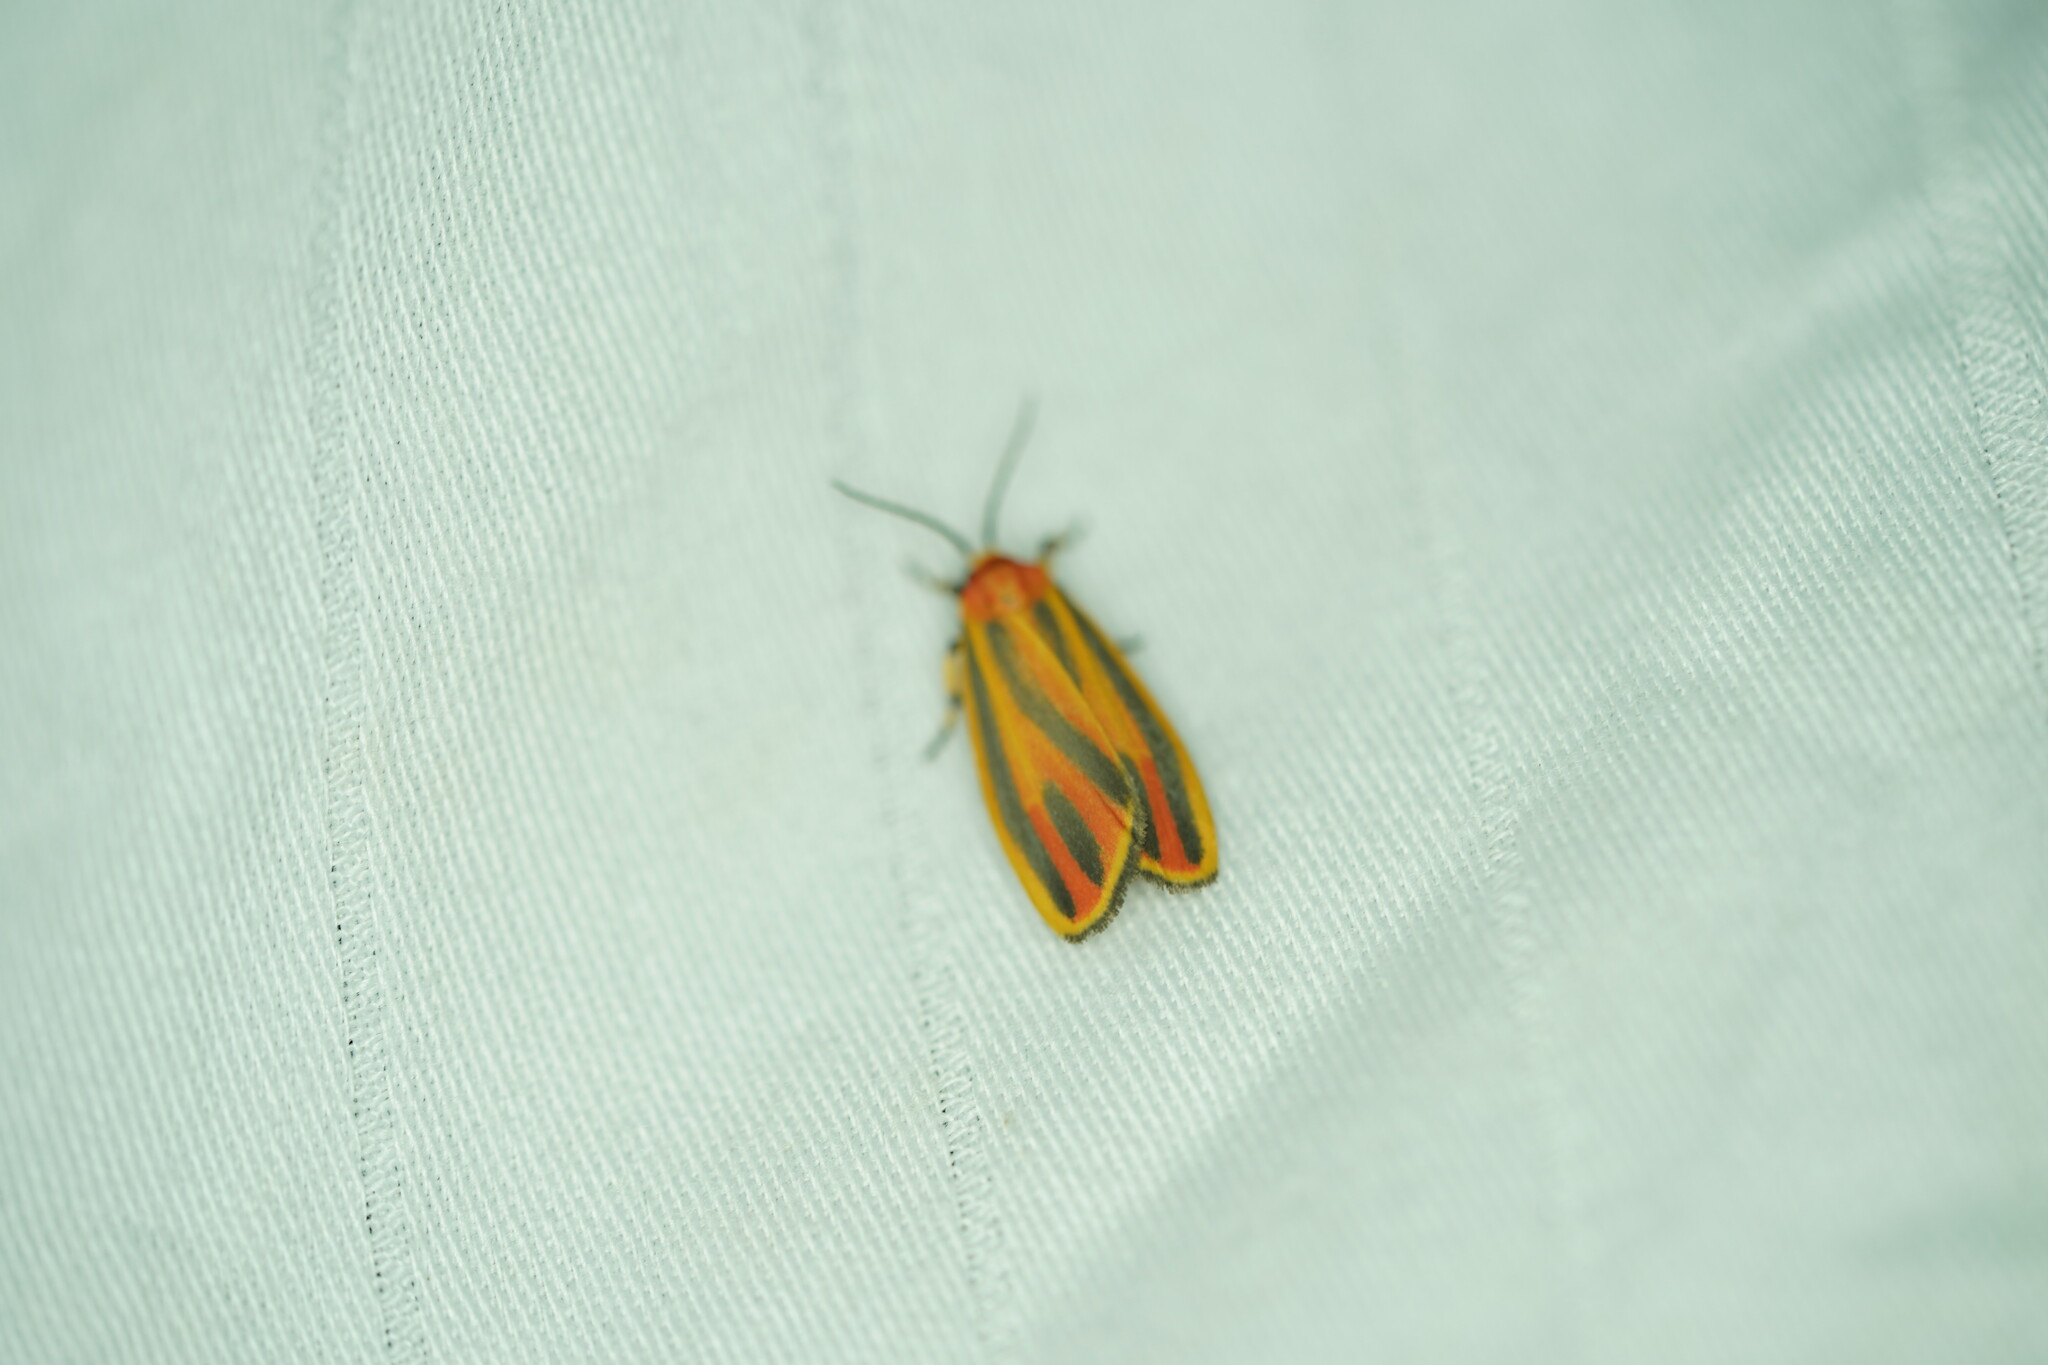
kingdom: Animalia
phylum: Arthropoda
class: Insecta
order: Lepidoptera
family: Erebidae
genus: Hypoprepia
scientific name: Hypoprepia fucosa
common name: Painted lichen moth
